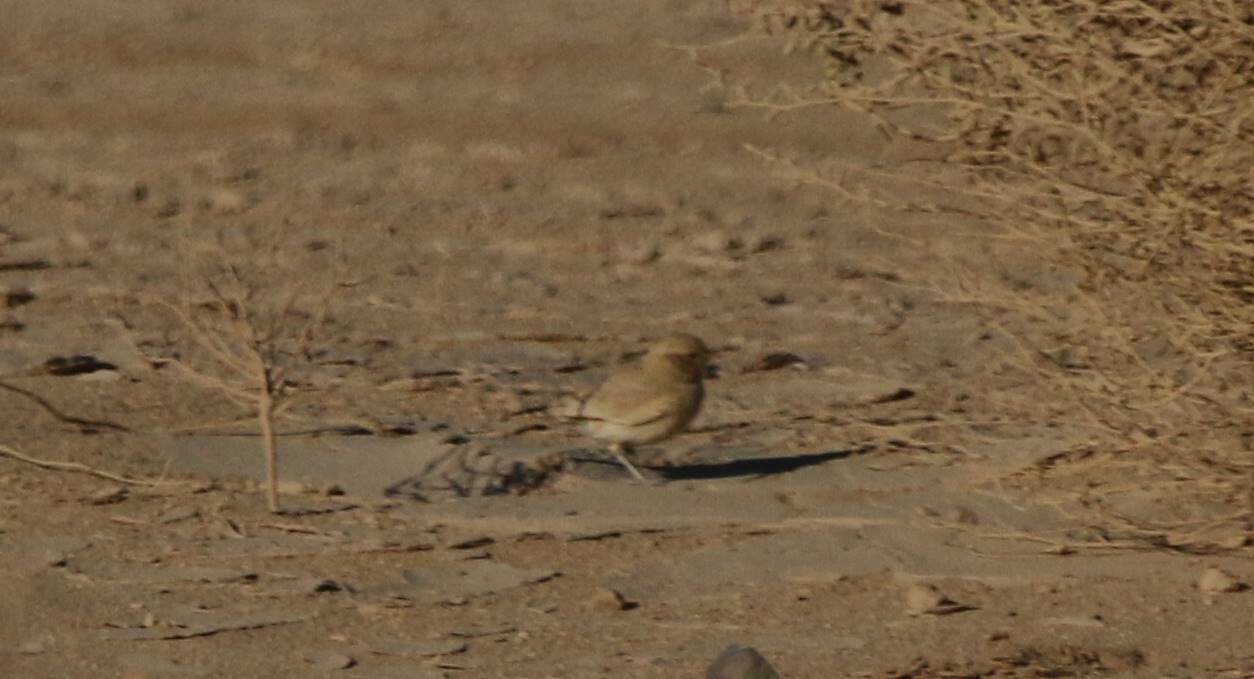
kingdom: Animalia
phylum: Chordata
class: Aves
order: Passeriformes
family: Alaudidae
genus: Ammomanes
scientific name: Ammomanes cinctura
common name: Bar-tailed lark
